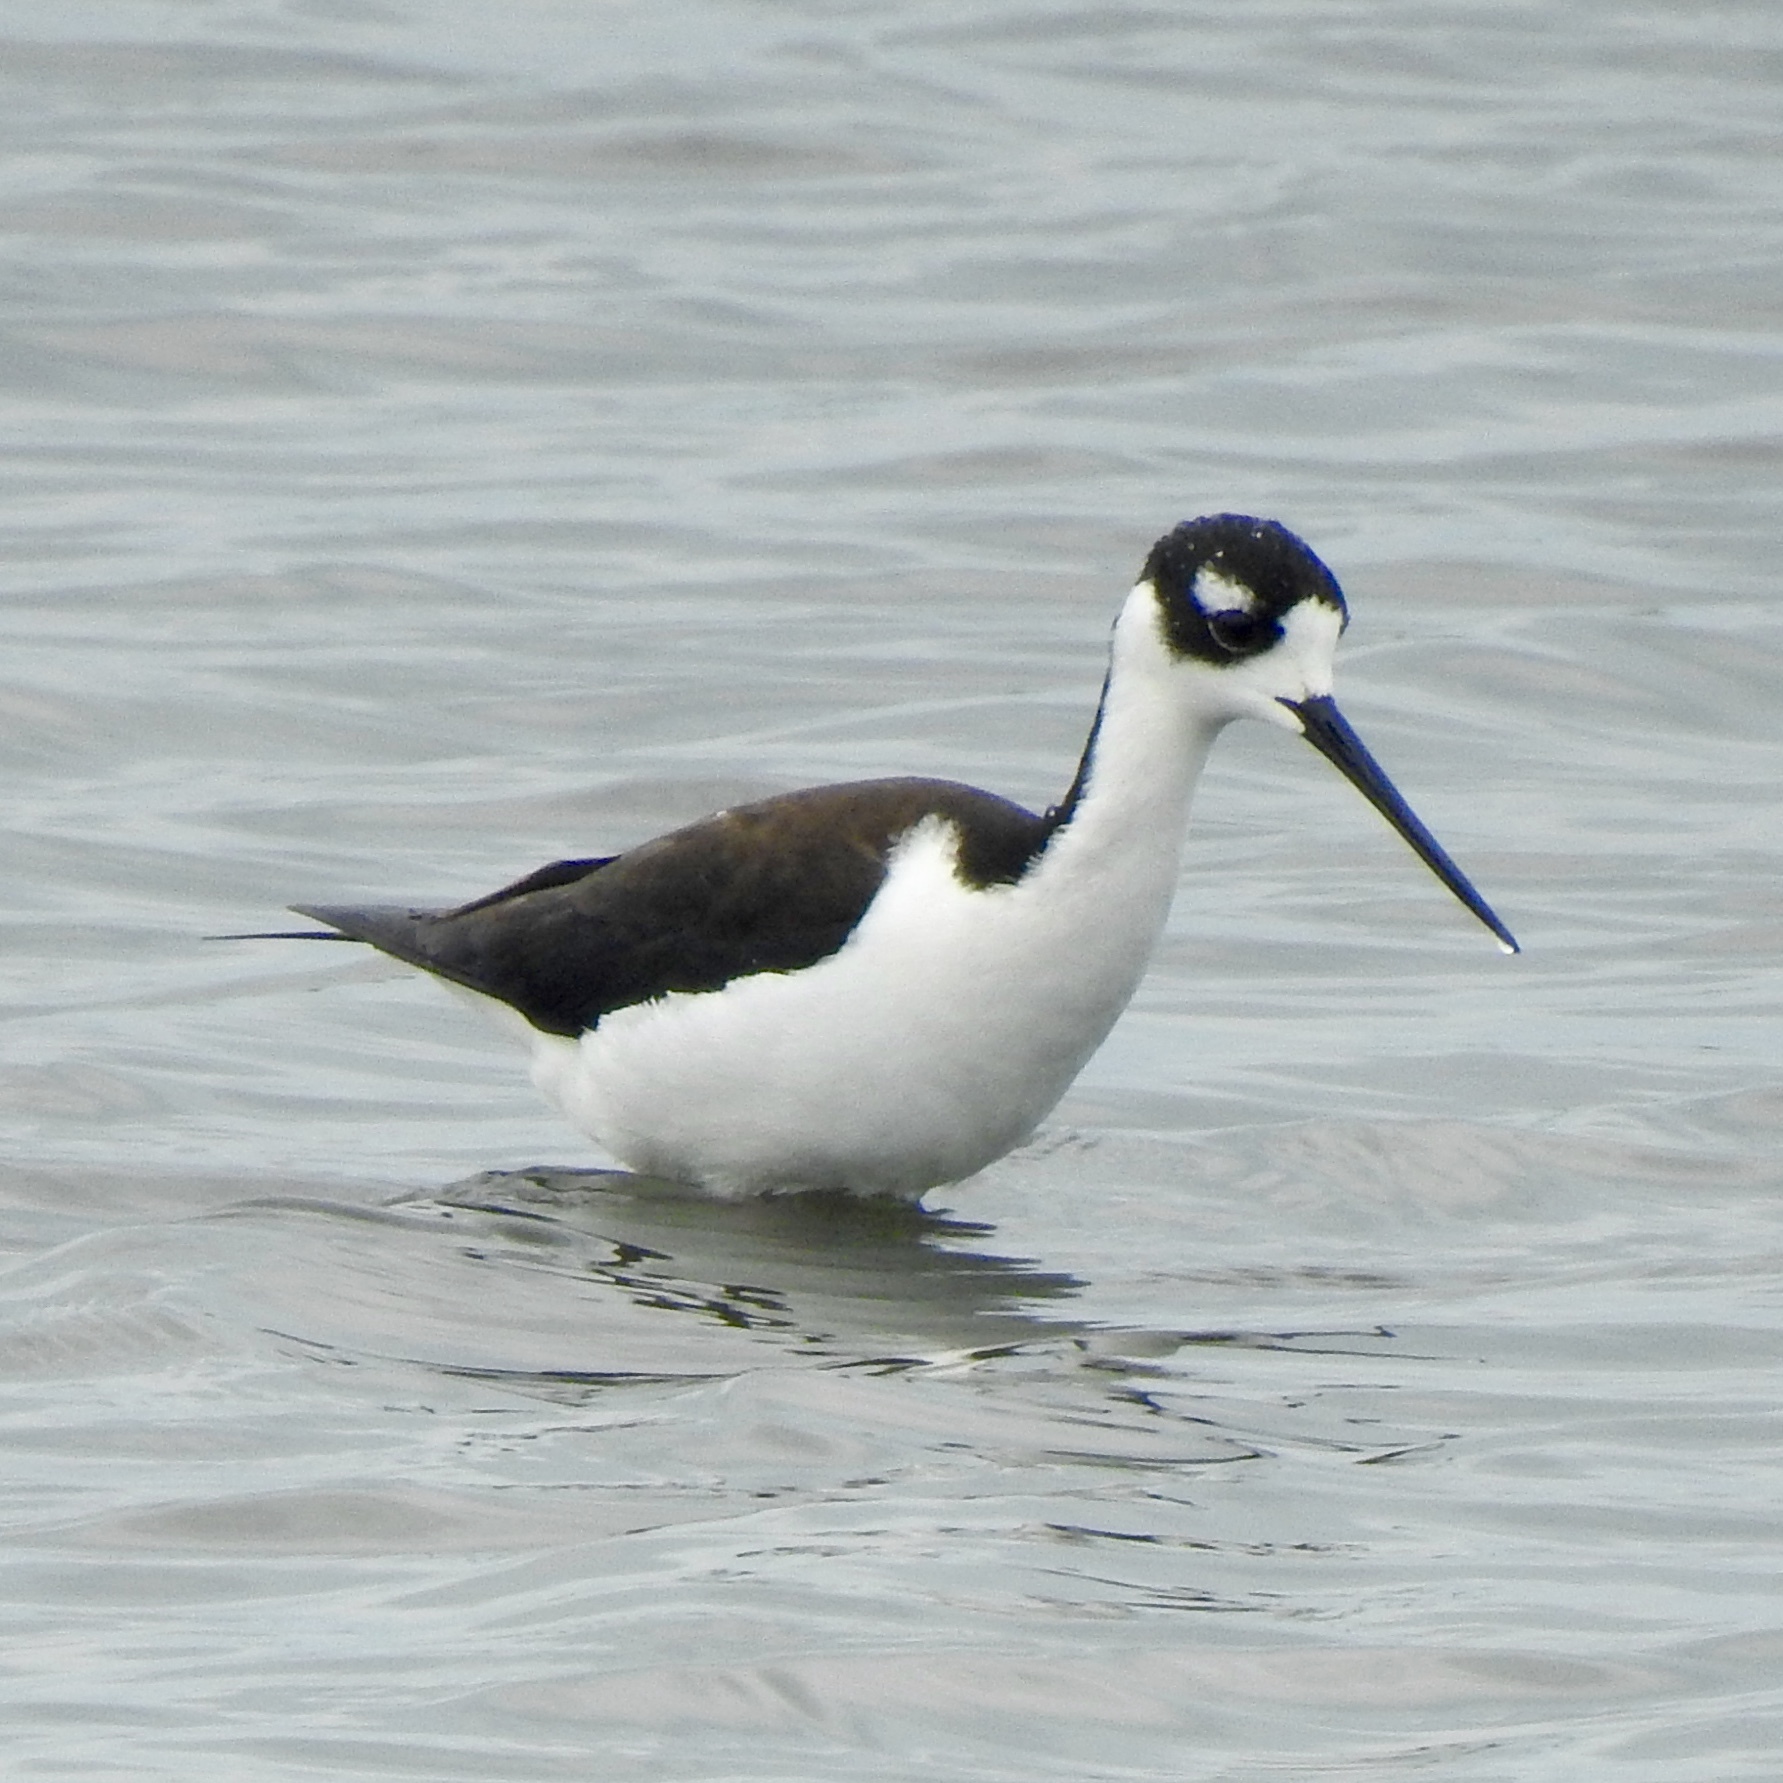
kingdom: Animalia
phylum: Chordata
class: Aves
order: Charadriiformes
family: Recurvirostridae
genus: Himantopus
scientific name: Himantopus mexicanus
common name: Black-necked stilt
